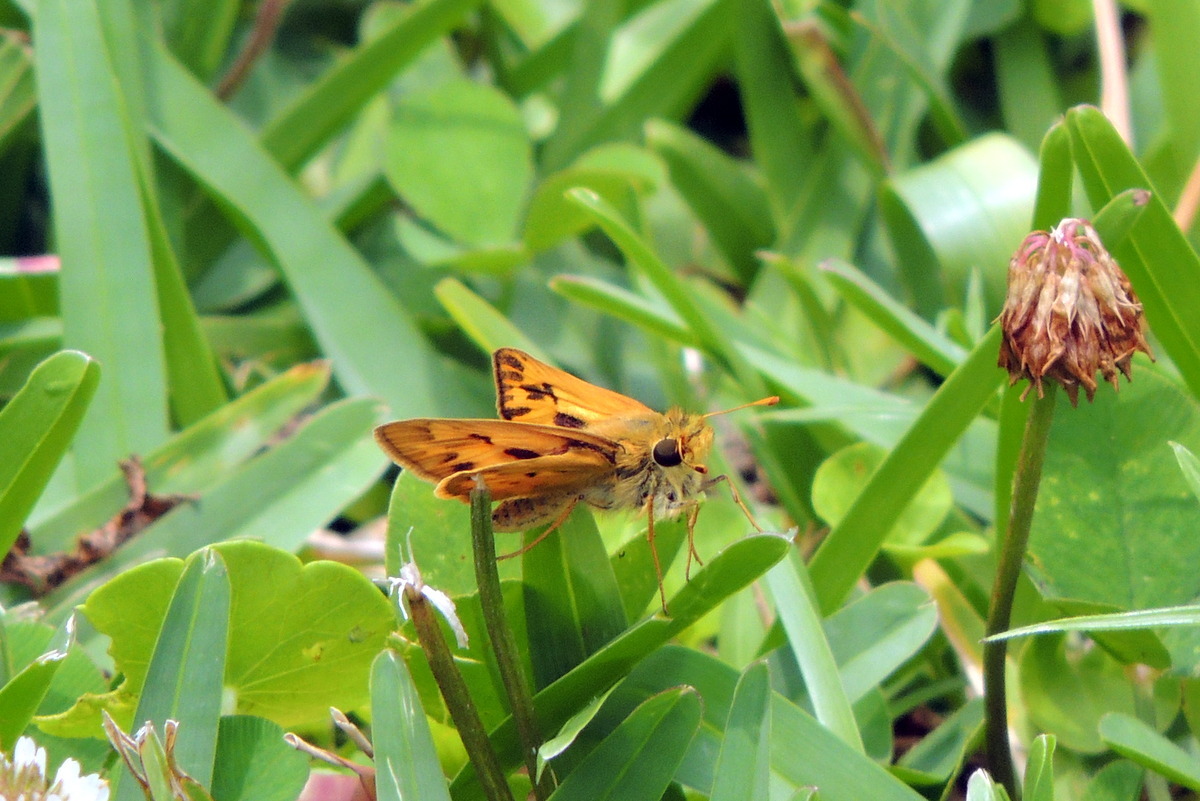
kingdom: Animalia
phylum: Arthropoda
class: Insecta
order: Lepidoptera
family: Hesperiidae
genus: Hylephila
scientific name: Hylephila phyleus
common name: Fiery skipper
